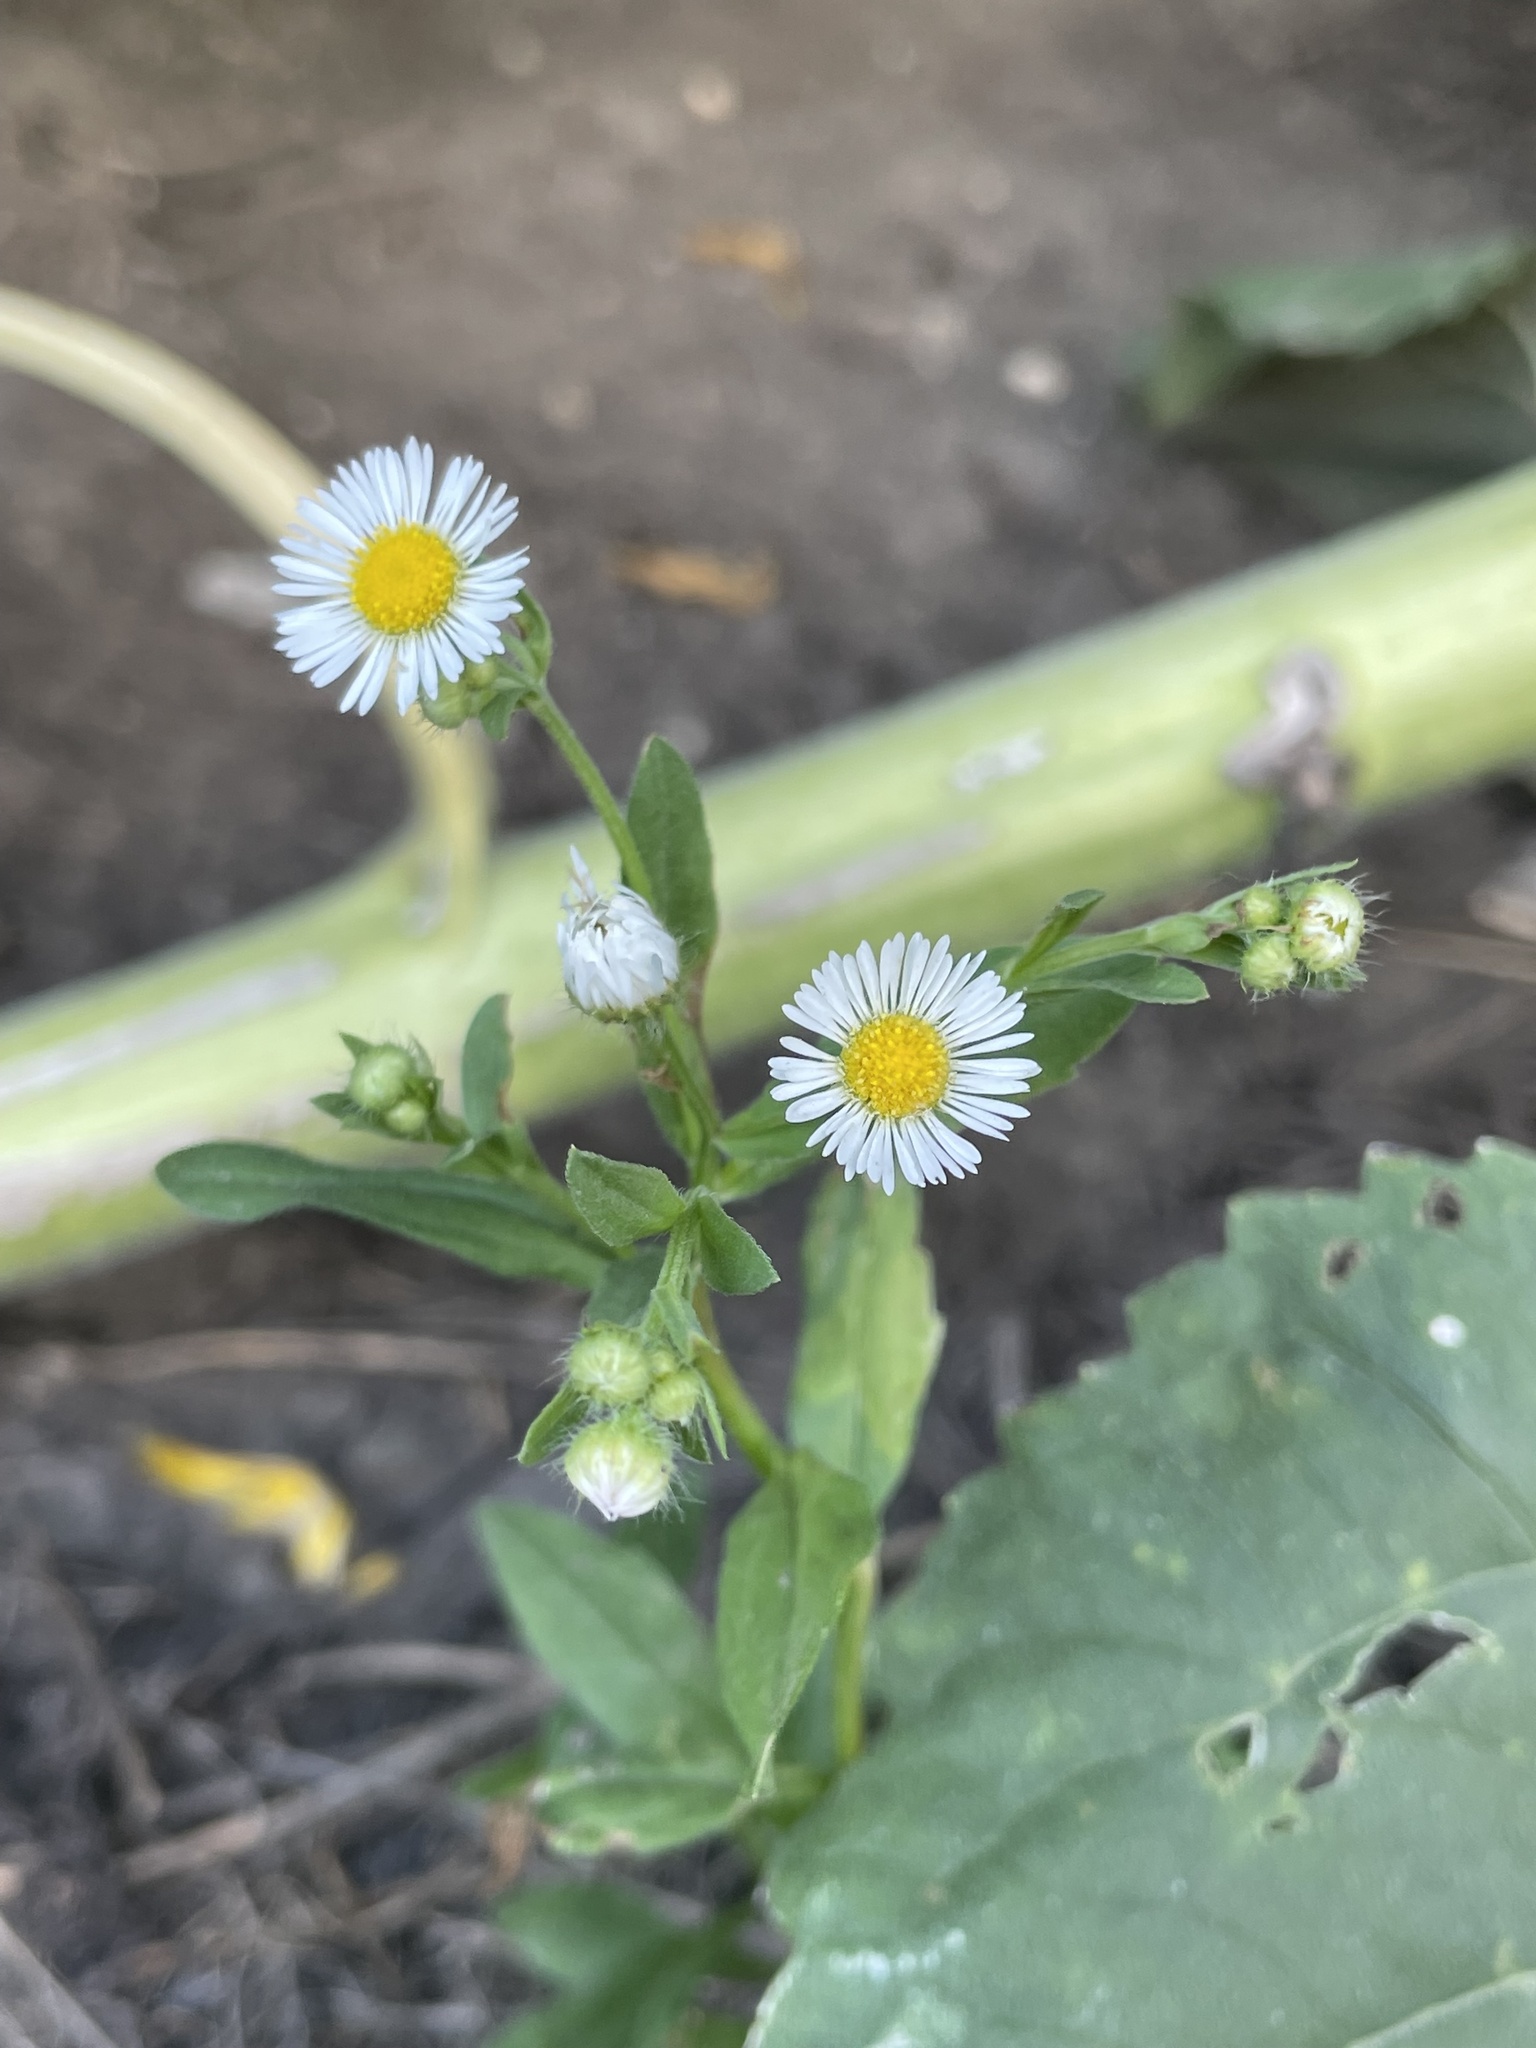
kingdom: Plantae
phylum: Tracheophyta
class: Magnoliopsida
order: Asterales
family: Asteraceae
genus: Erigeron
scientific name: Erigeron annuus
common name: Tall fleabane
